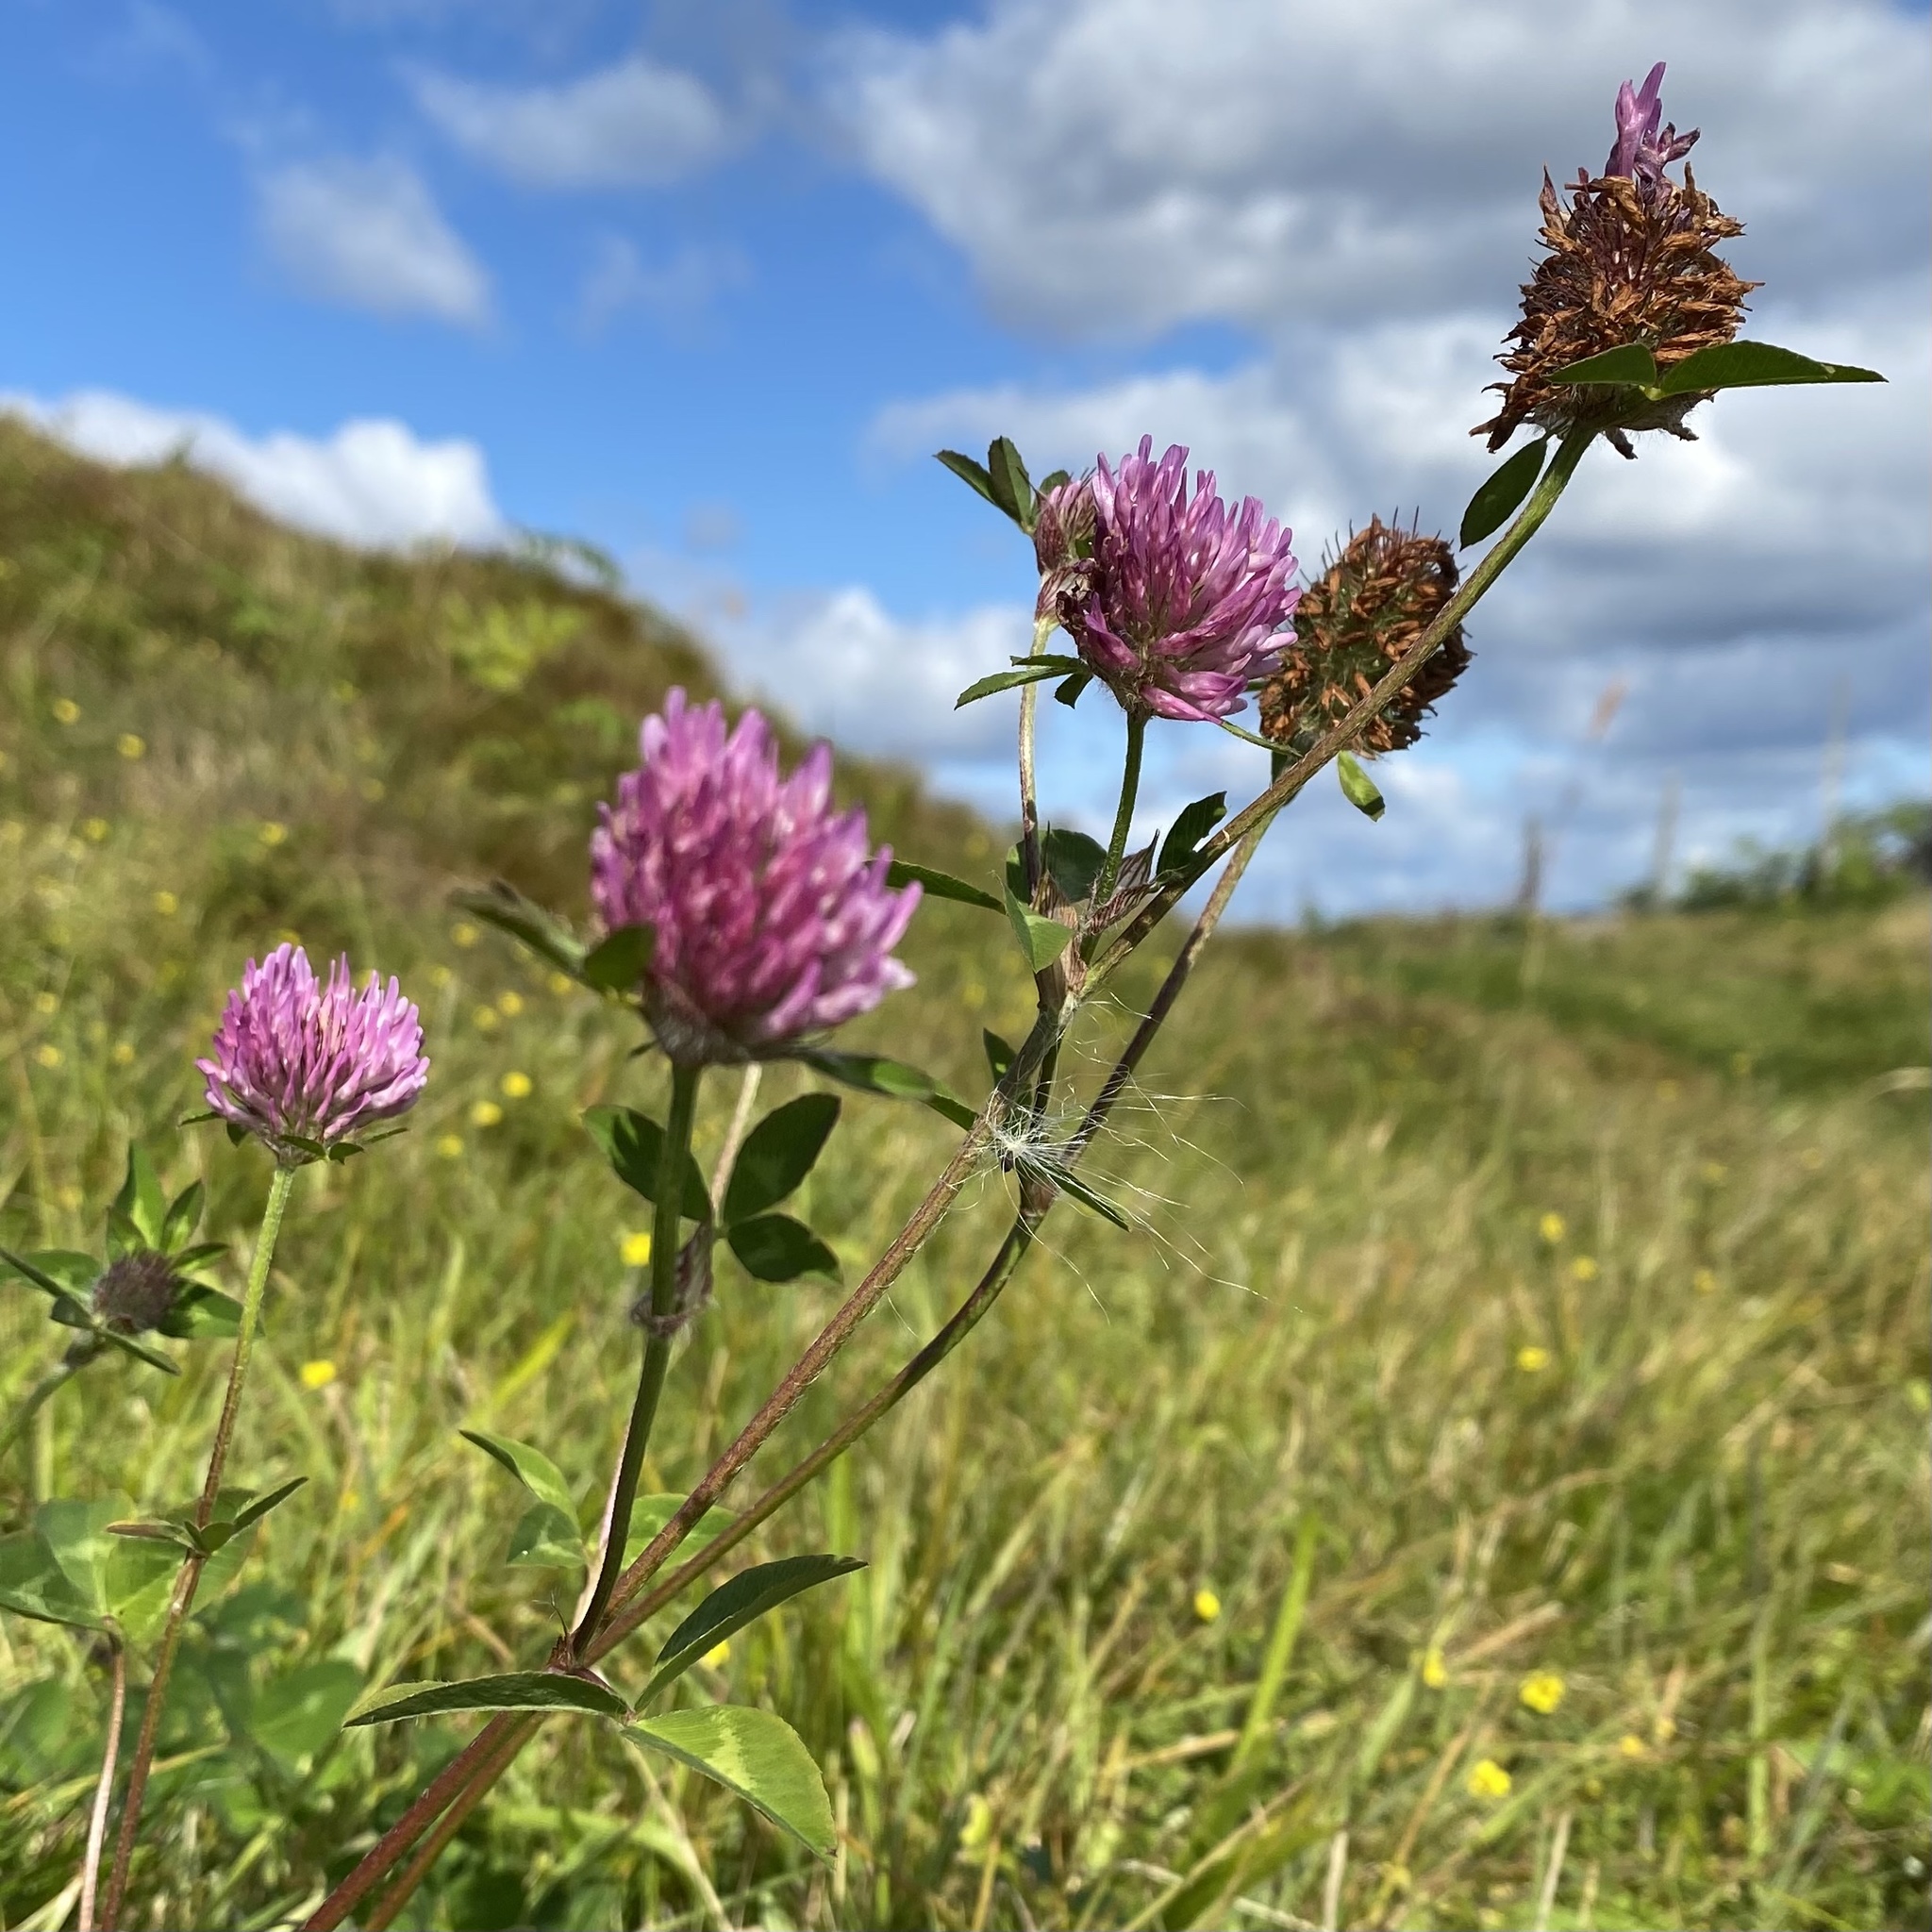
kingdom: Plantae
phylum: Tracheophyta
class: Magnoliopsida
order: Fabales
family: Fabaceae
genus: Trifolium
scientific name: Trifolium pratense
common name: Red clover
